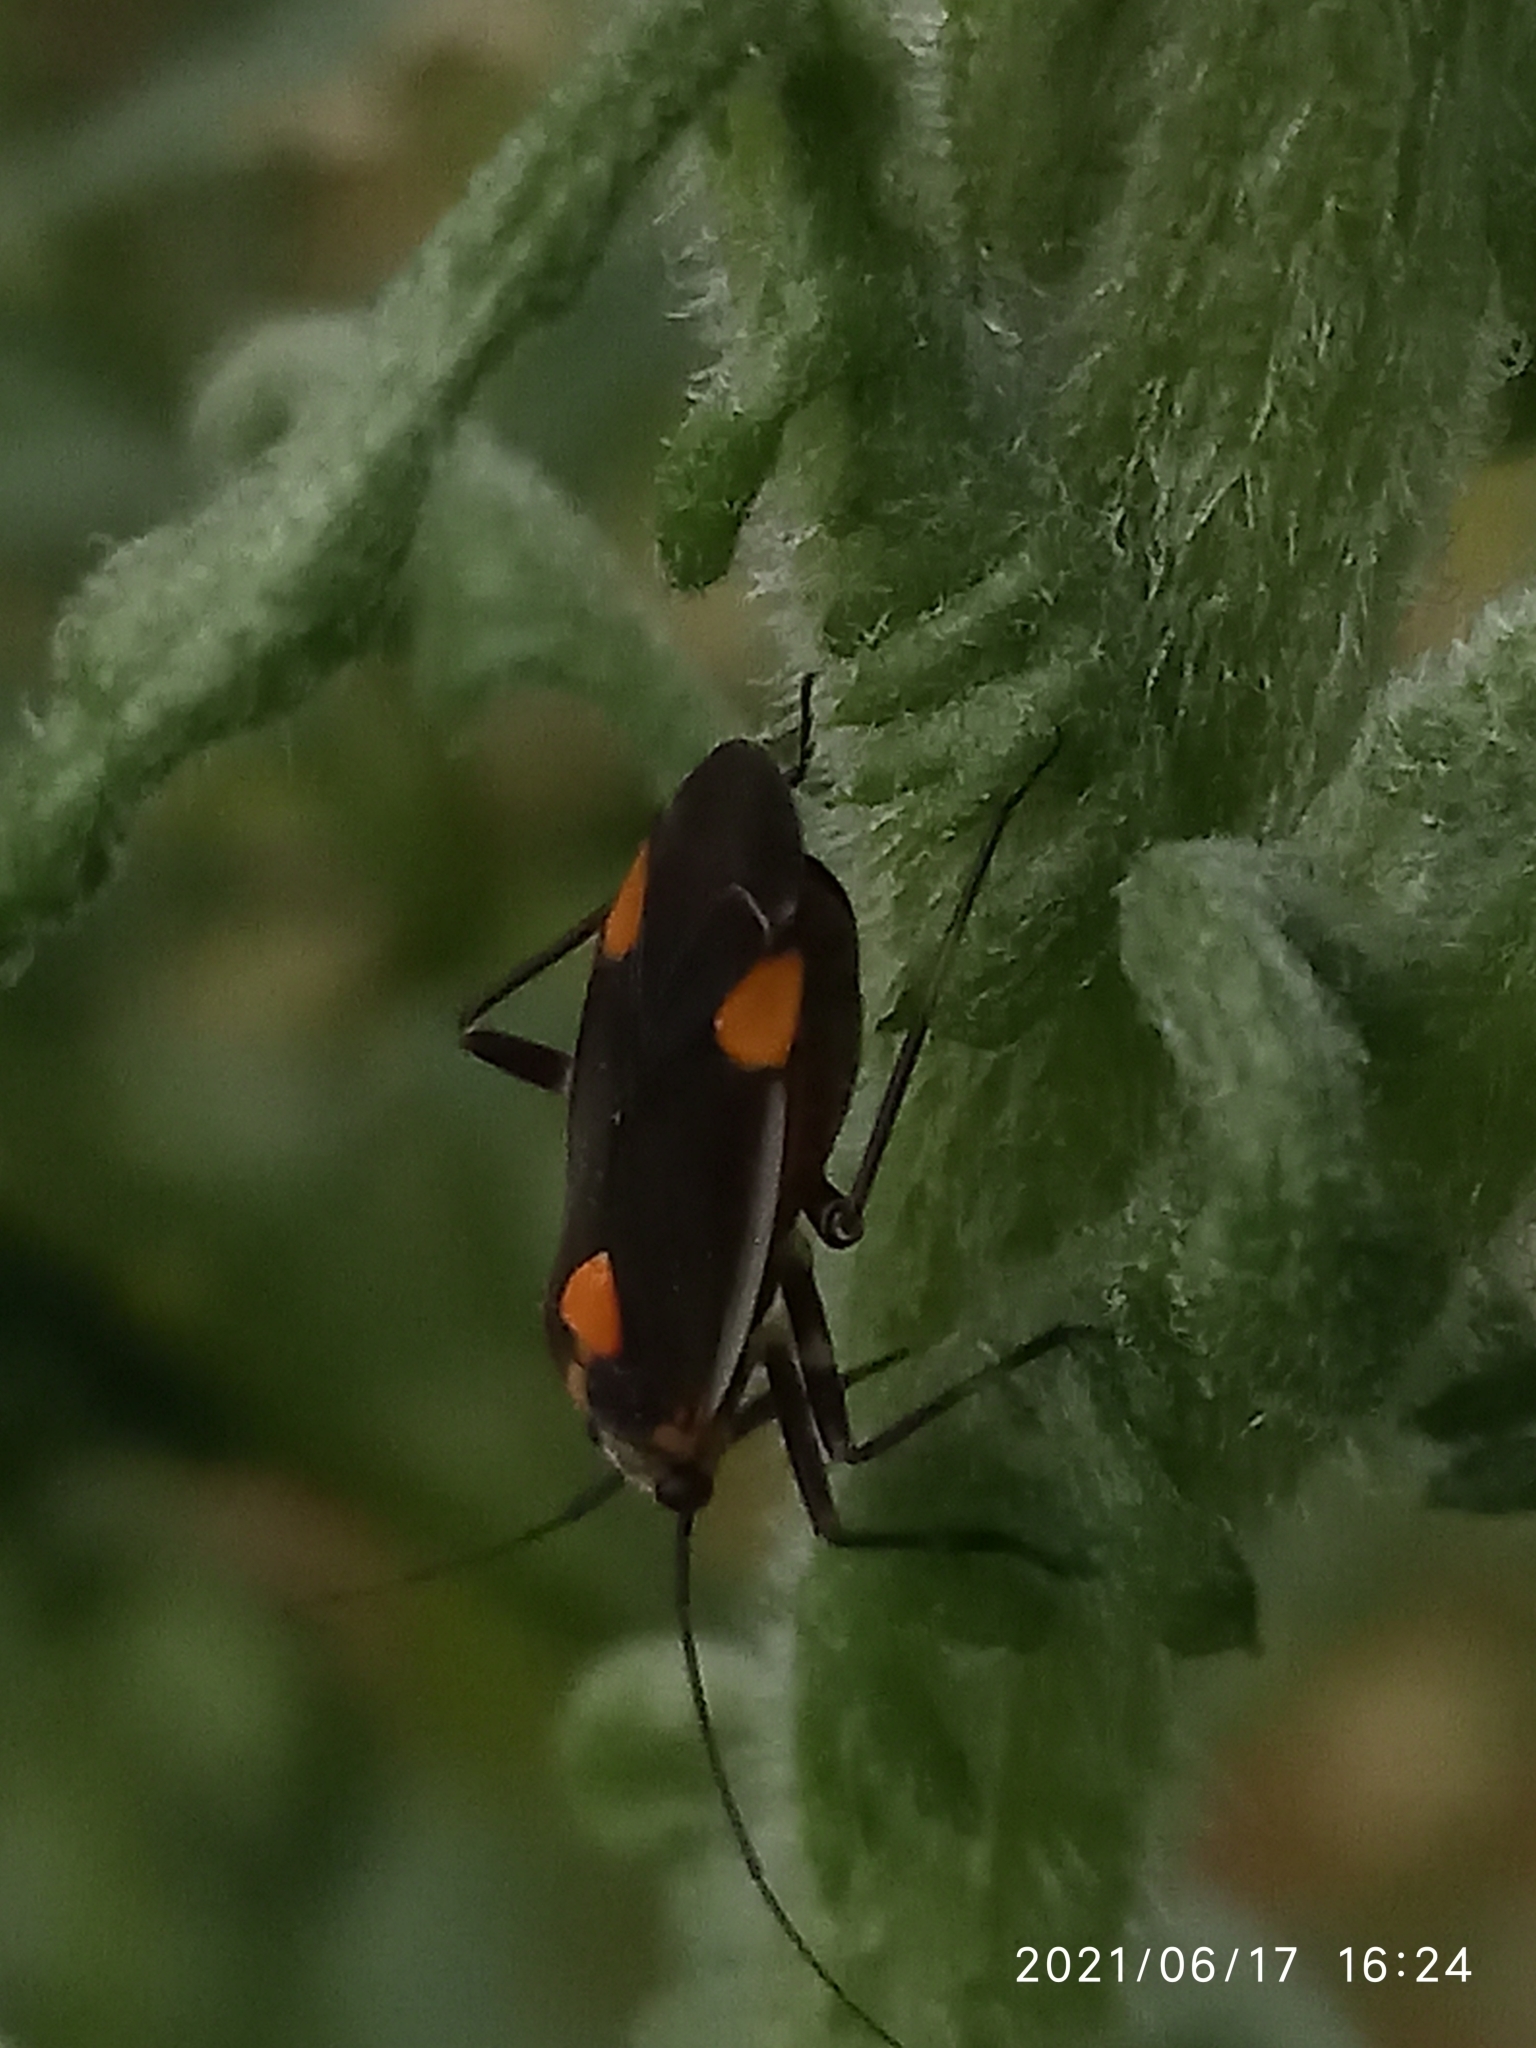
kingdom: Animalia
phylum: Arthropoda
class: Insecta
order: Hemiptera
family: Miridae
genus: Capsodes
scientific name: Capsodes flavomarginatus
